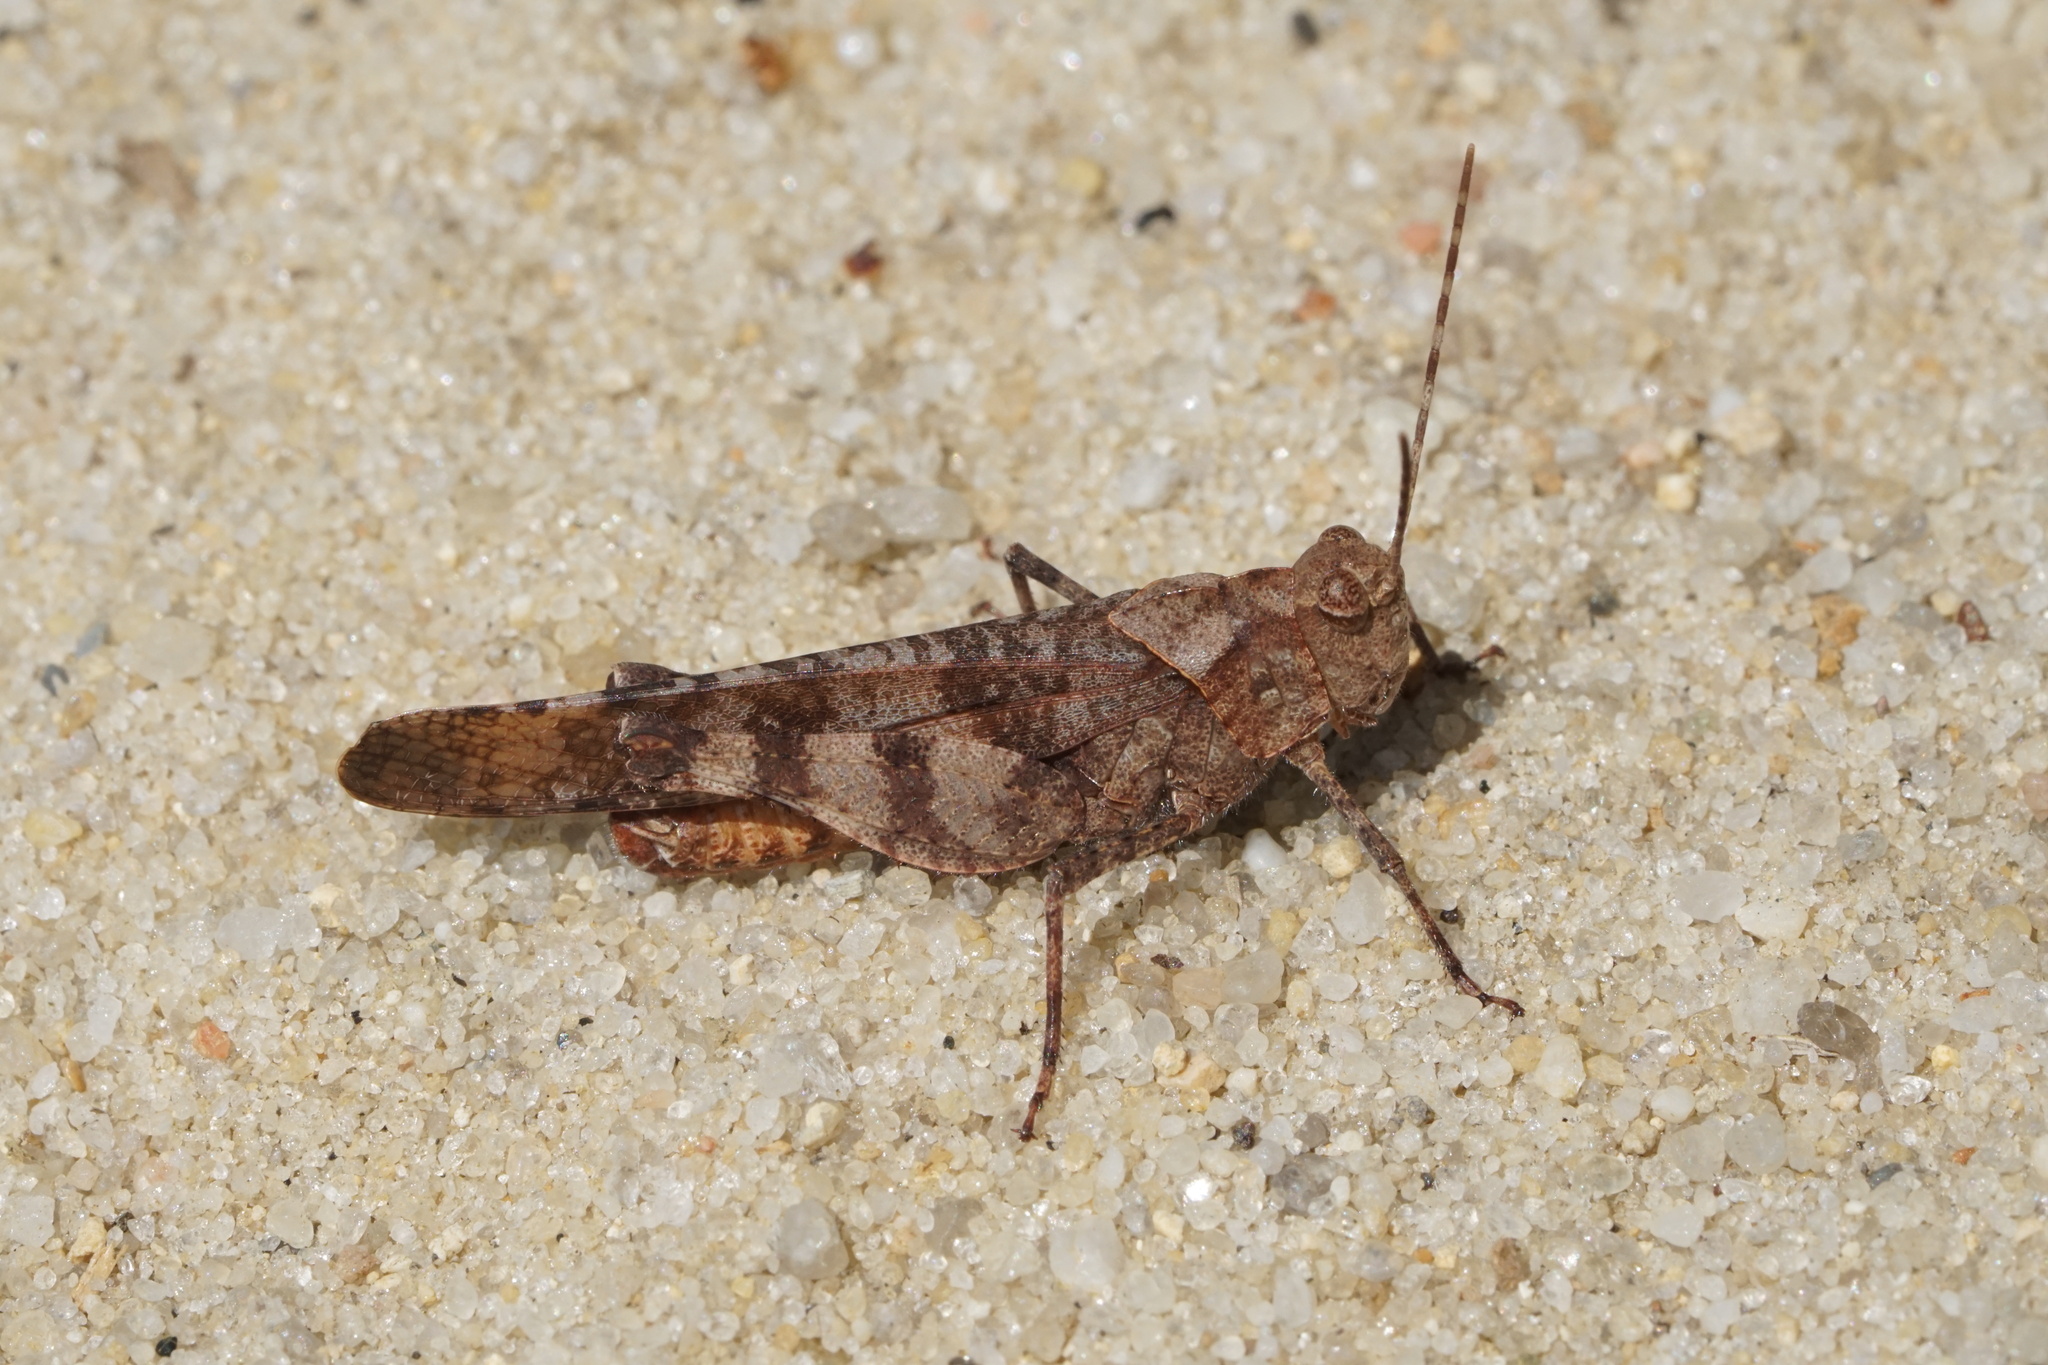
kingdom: Animalia
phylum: Arthropoda
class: Insecta
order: Orthoptera
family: Acrididae
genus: Spharagemon
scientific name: Spharagemon bolli
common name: Boll's grasshopper
